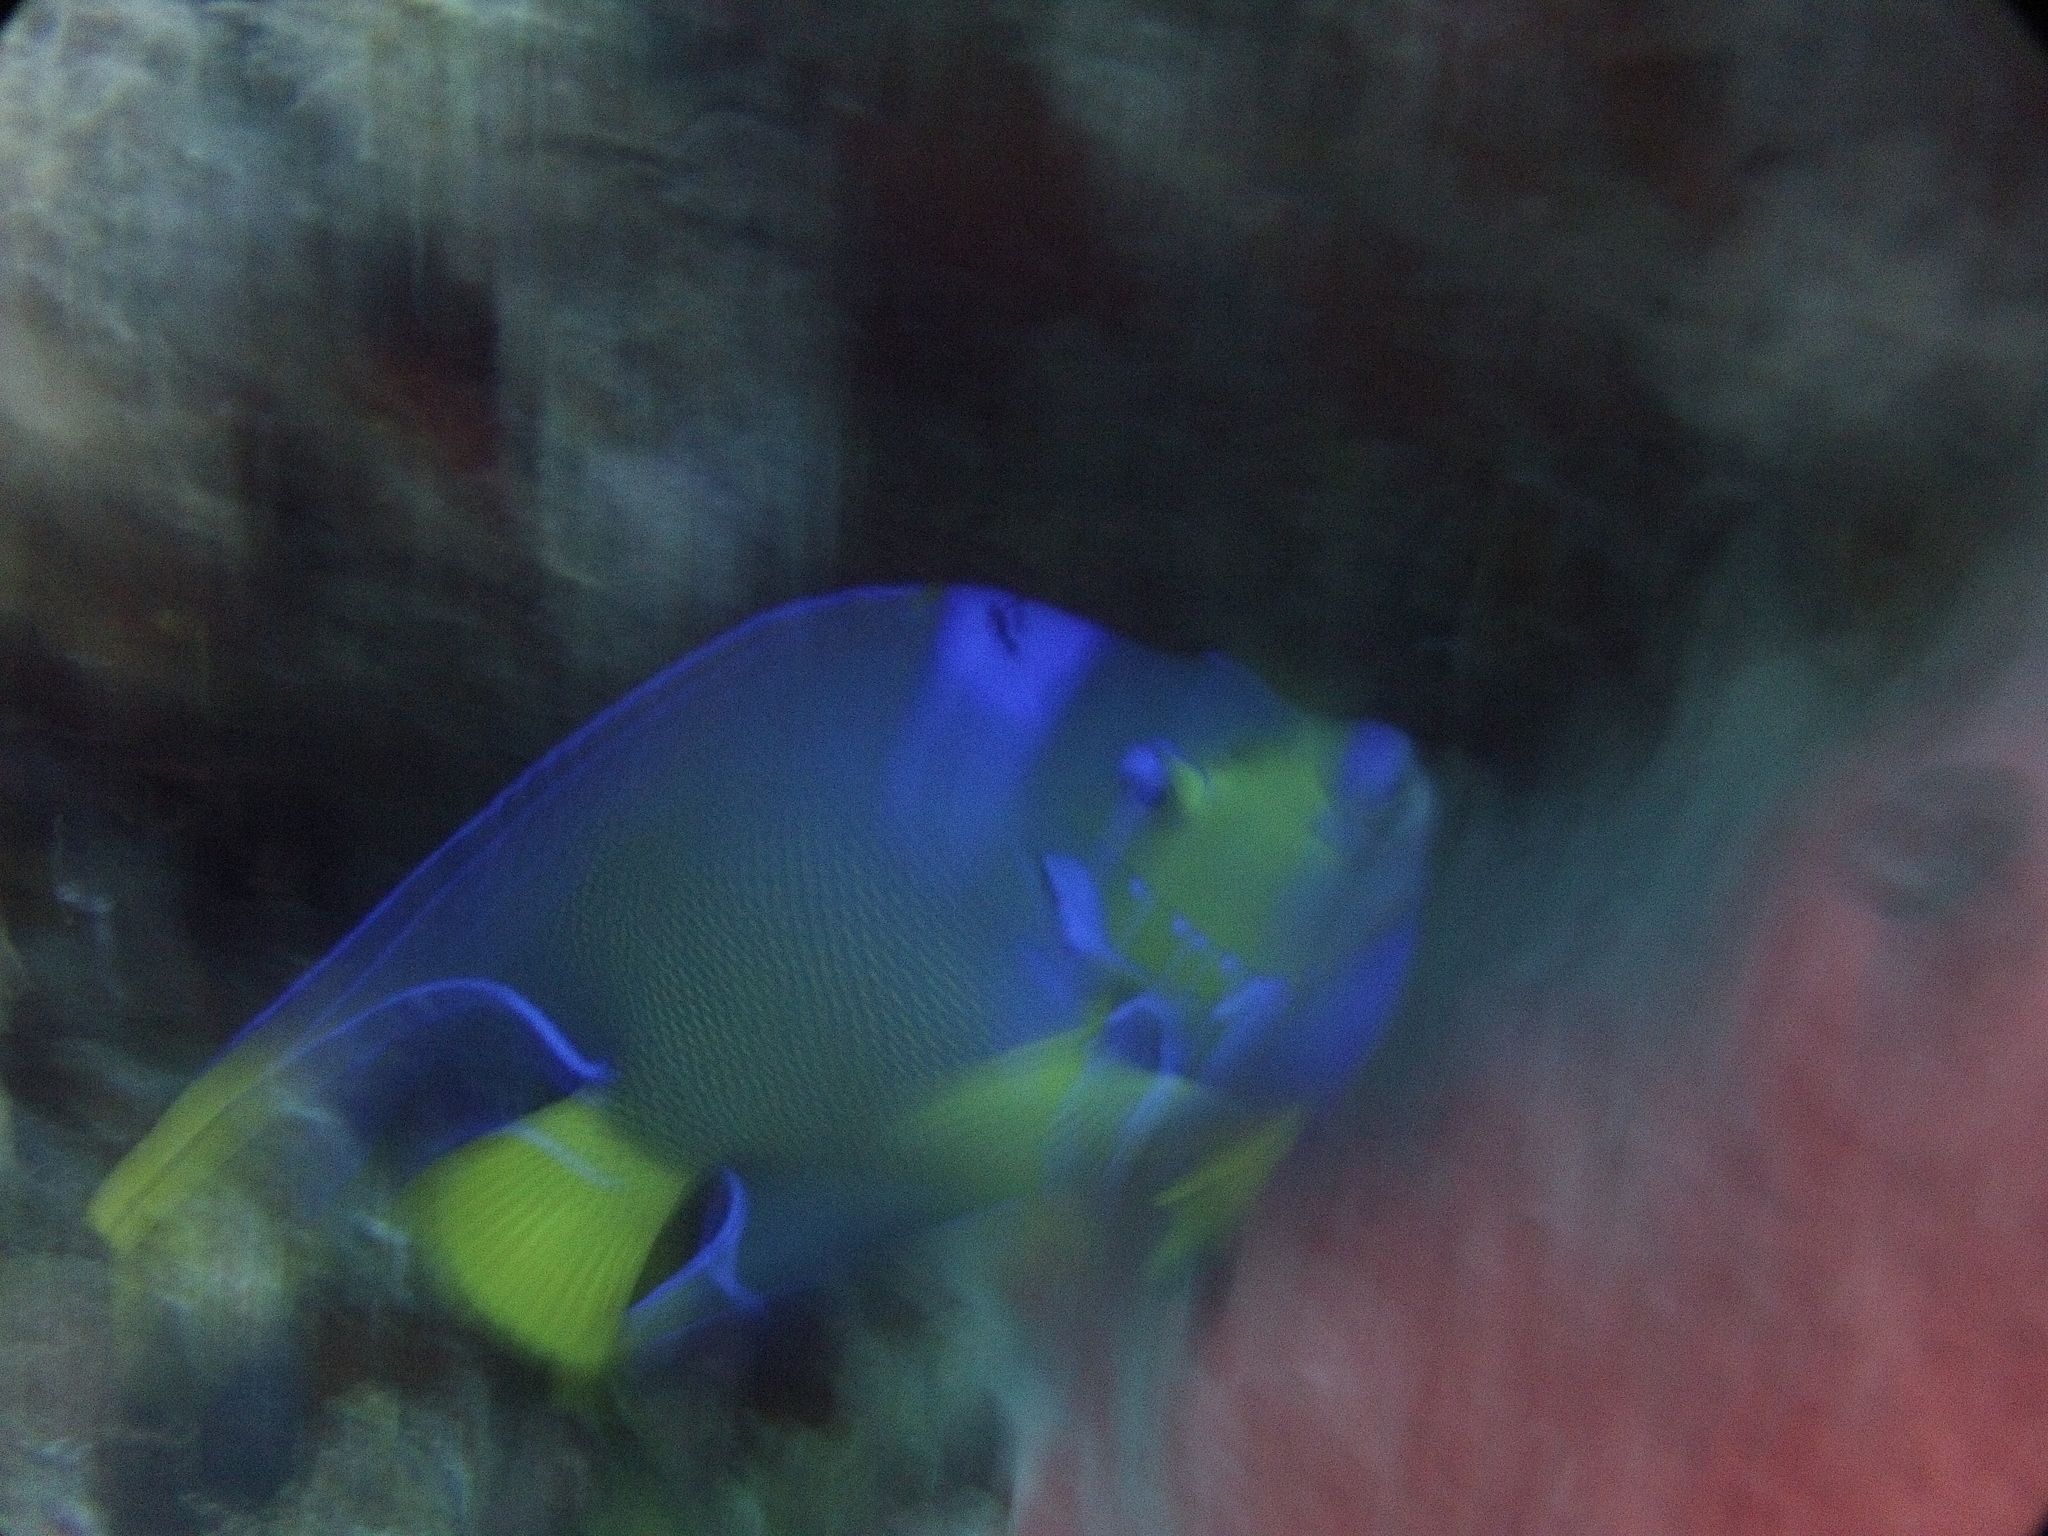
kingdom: Animalia
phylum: Chordata
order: Perciformes
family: Pomacanthidae
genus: Holacanthus
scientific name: Holacanthus ciliaris
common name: Queen angelfish
